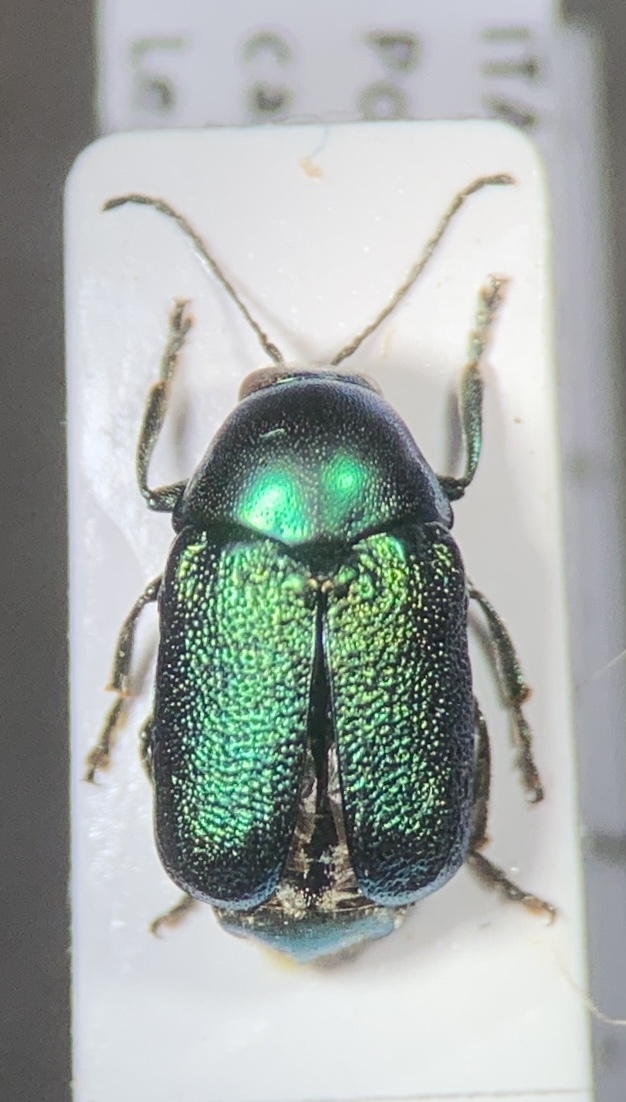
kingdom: Animalia
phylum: Arthropoda
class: Insecta
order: Coleoptera
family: Chrysomelidae
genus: Cryptocephalus
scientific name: Cryptocephalus aureolus
